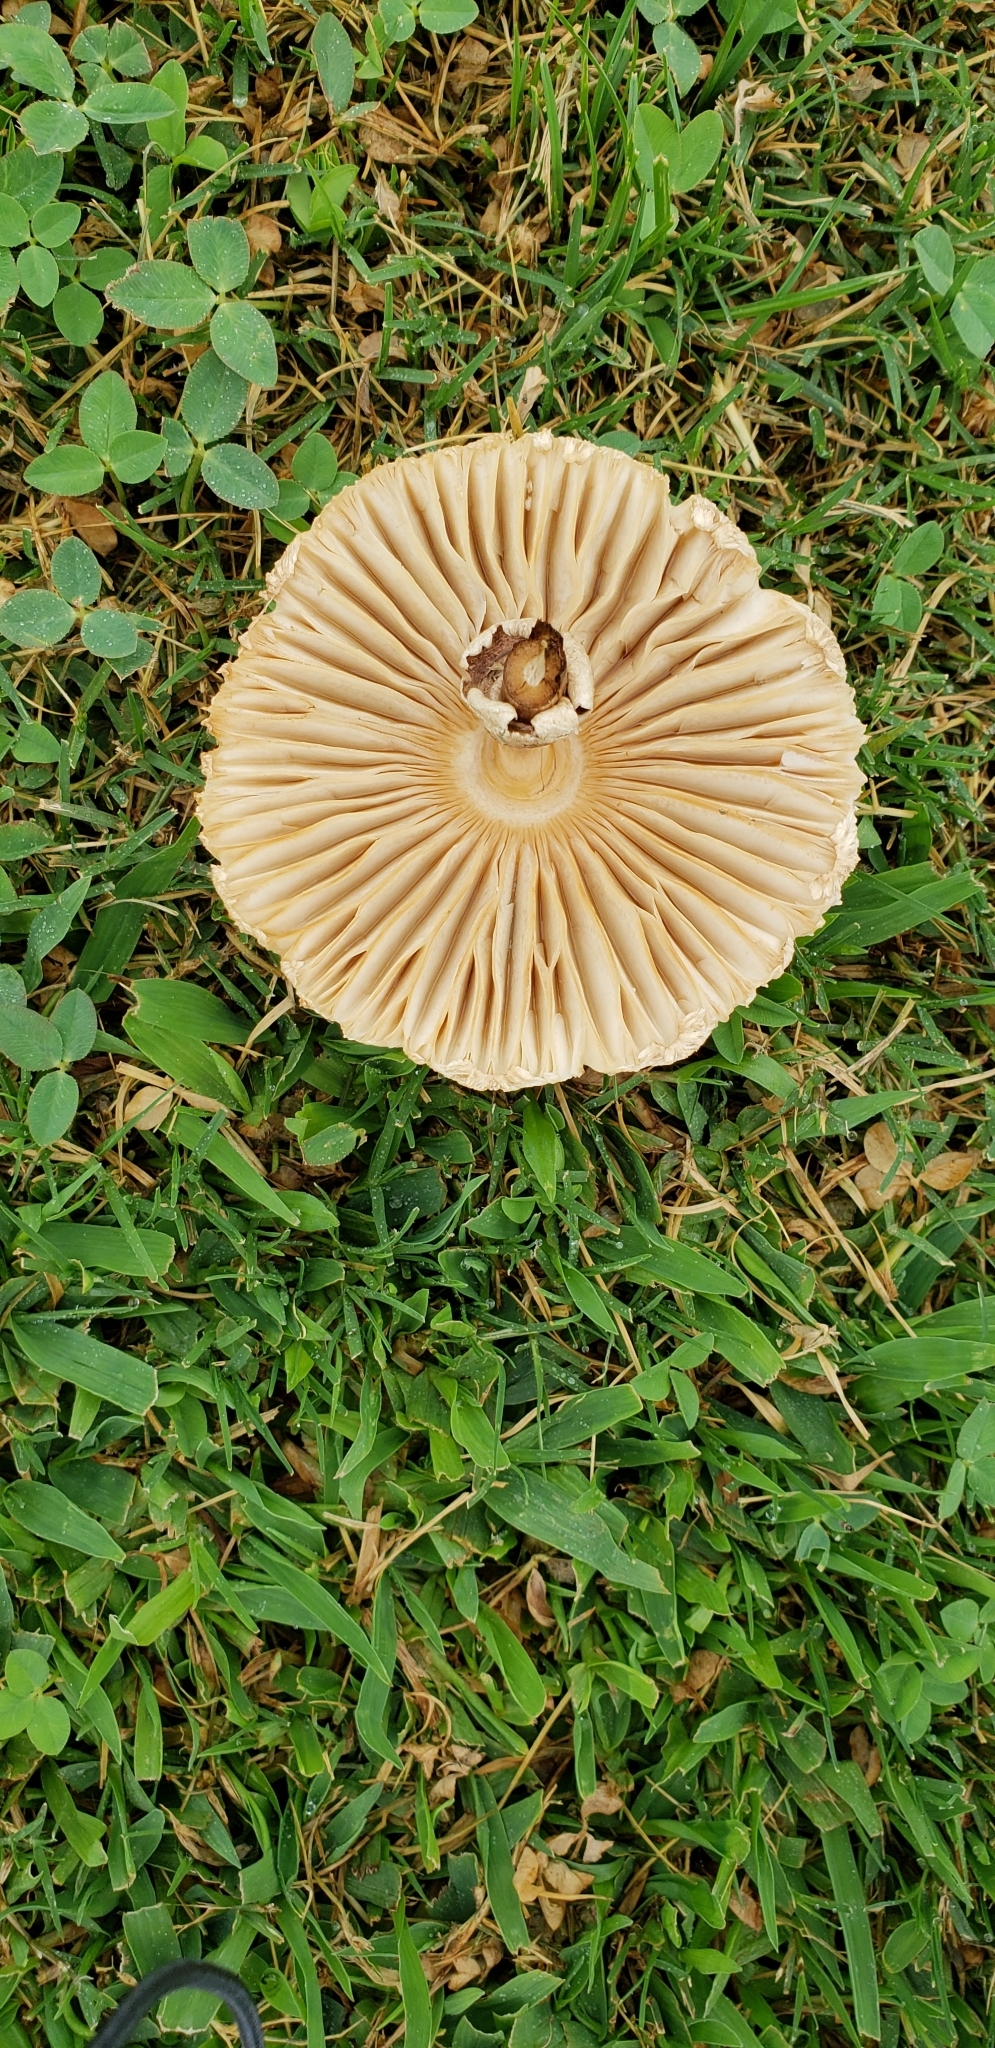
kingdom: Fungi
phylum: Basidiomycota
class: Agaricomycetes
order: Agaricales
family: Agaricaceae
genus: Chlorophyllum
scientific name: Chlorophyllum molybdites
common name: False parasol
